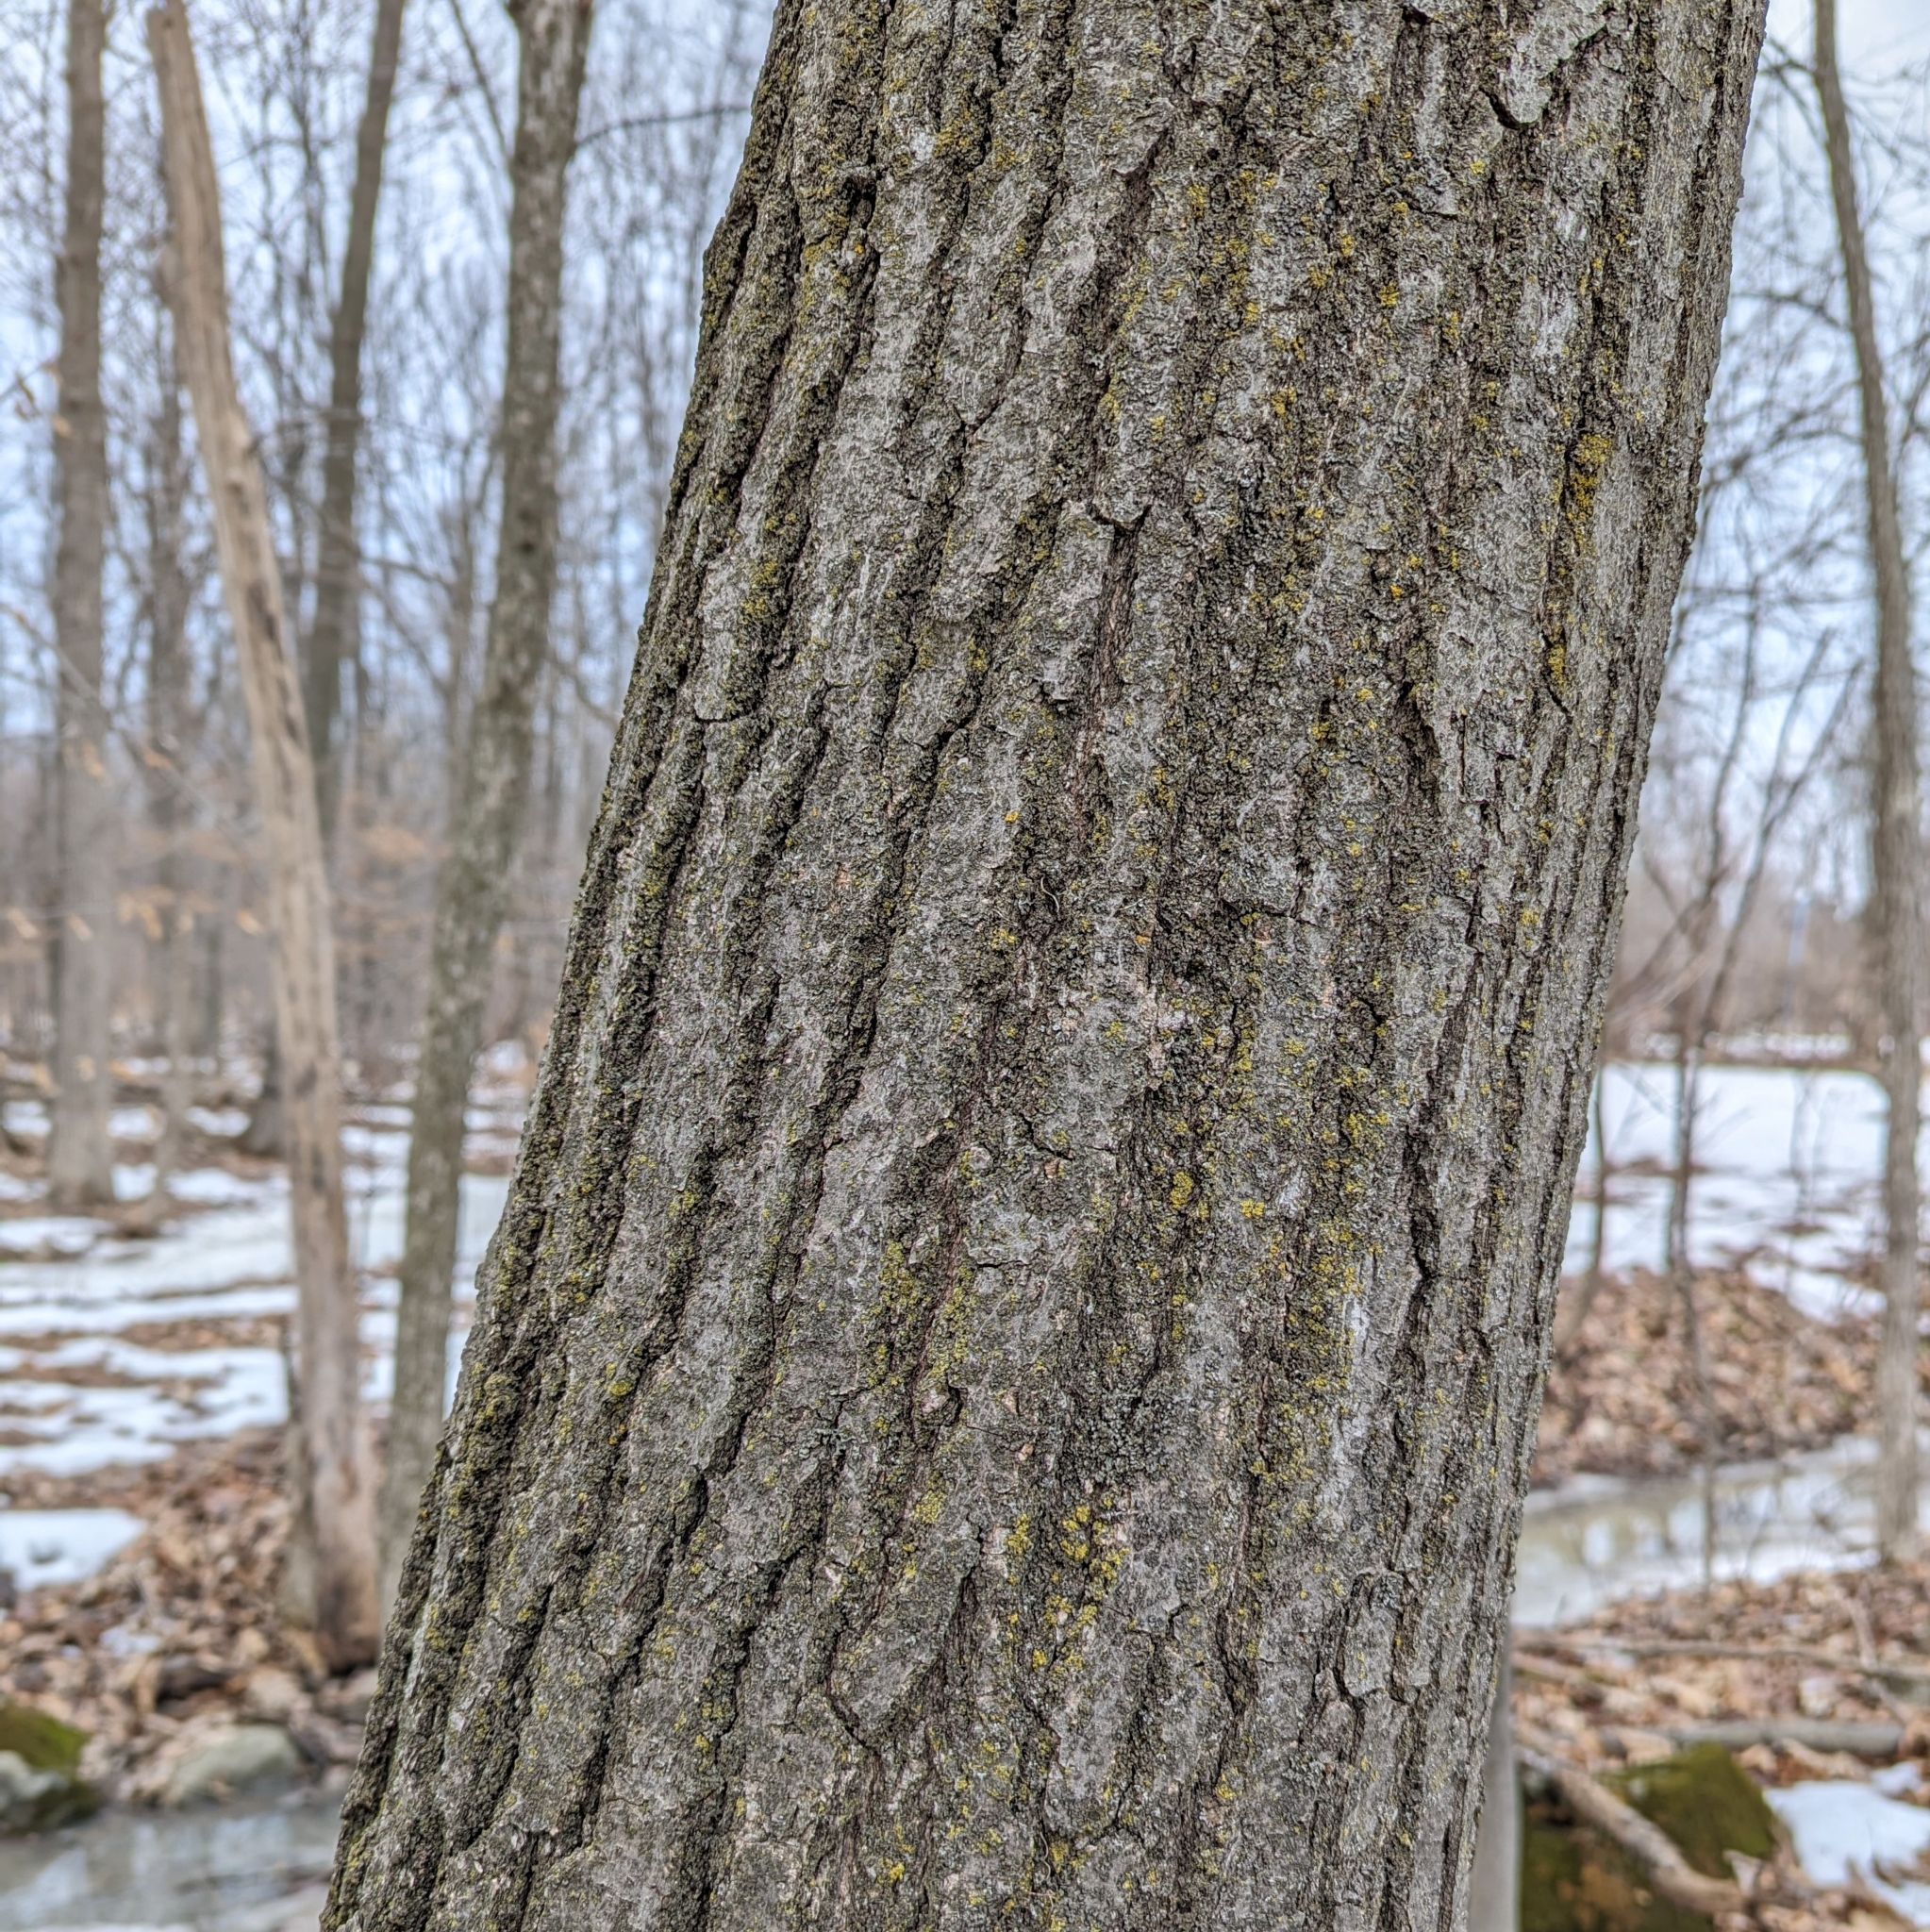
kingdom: Plantae
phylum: Tracheophyta
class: Magnoliopsida
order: Fagales
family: Fagaceae
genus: Quercus
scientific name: Quercus rubra
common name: Red oak
